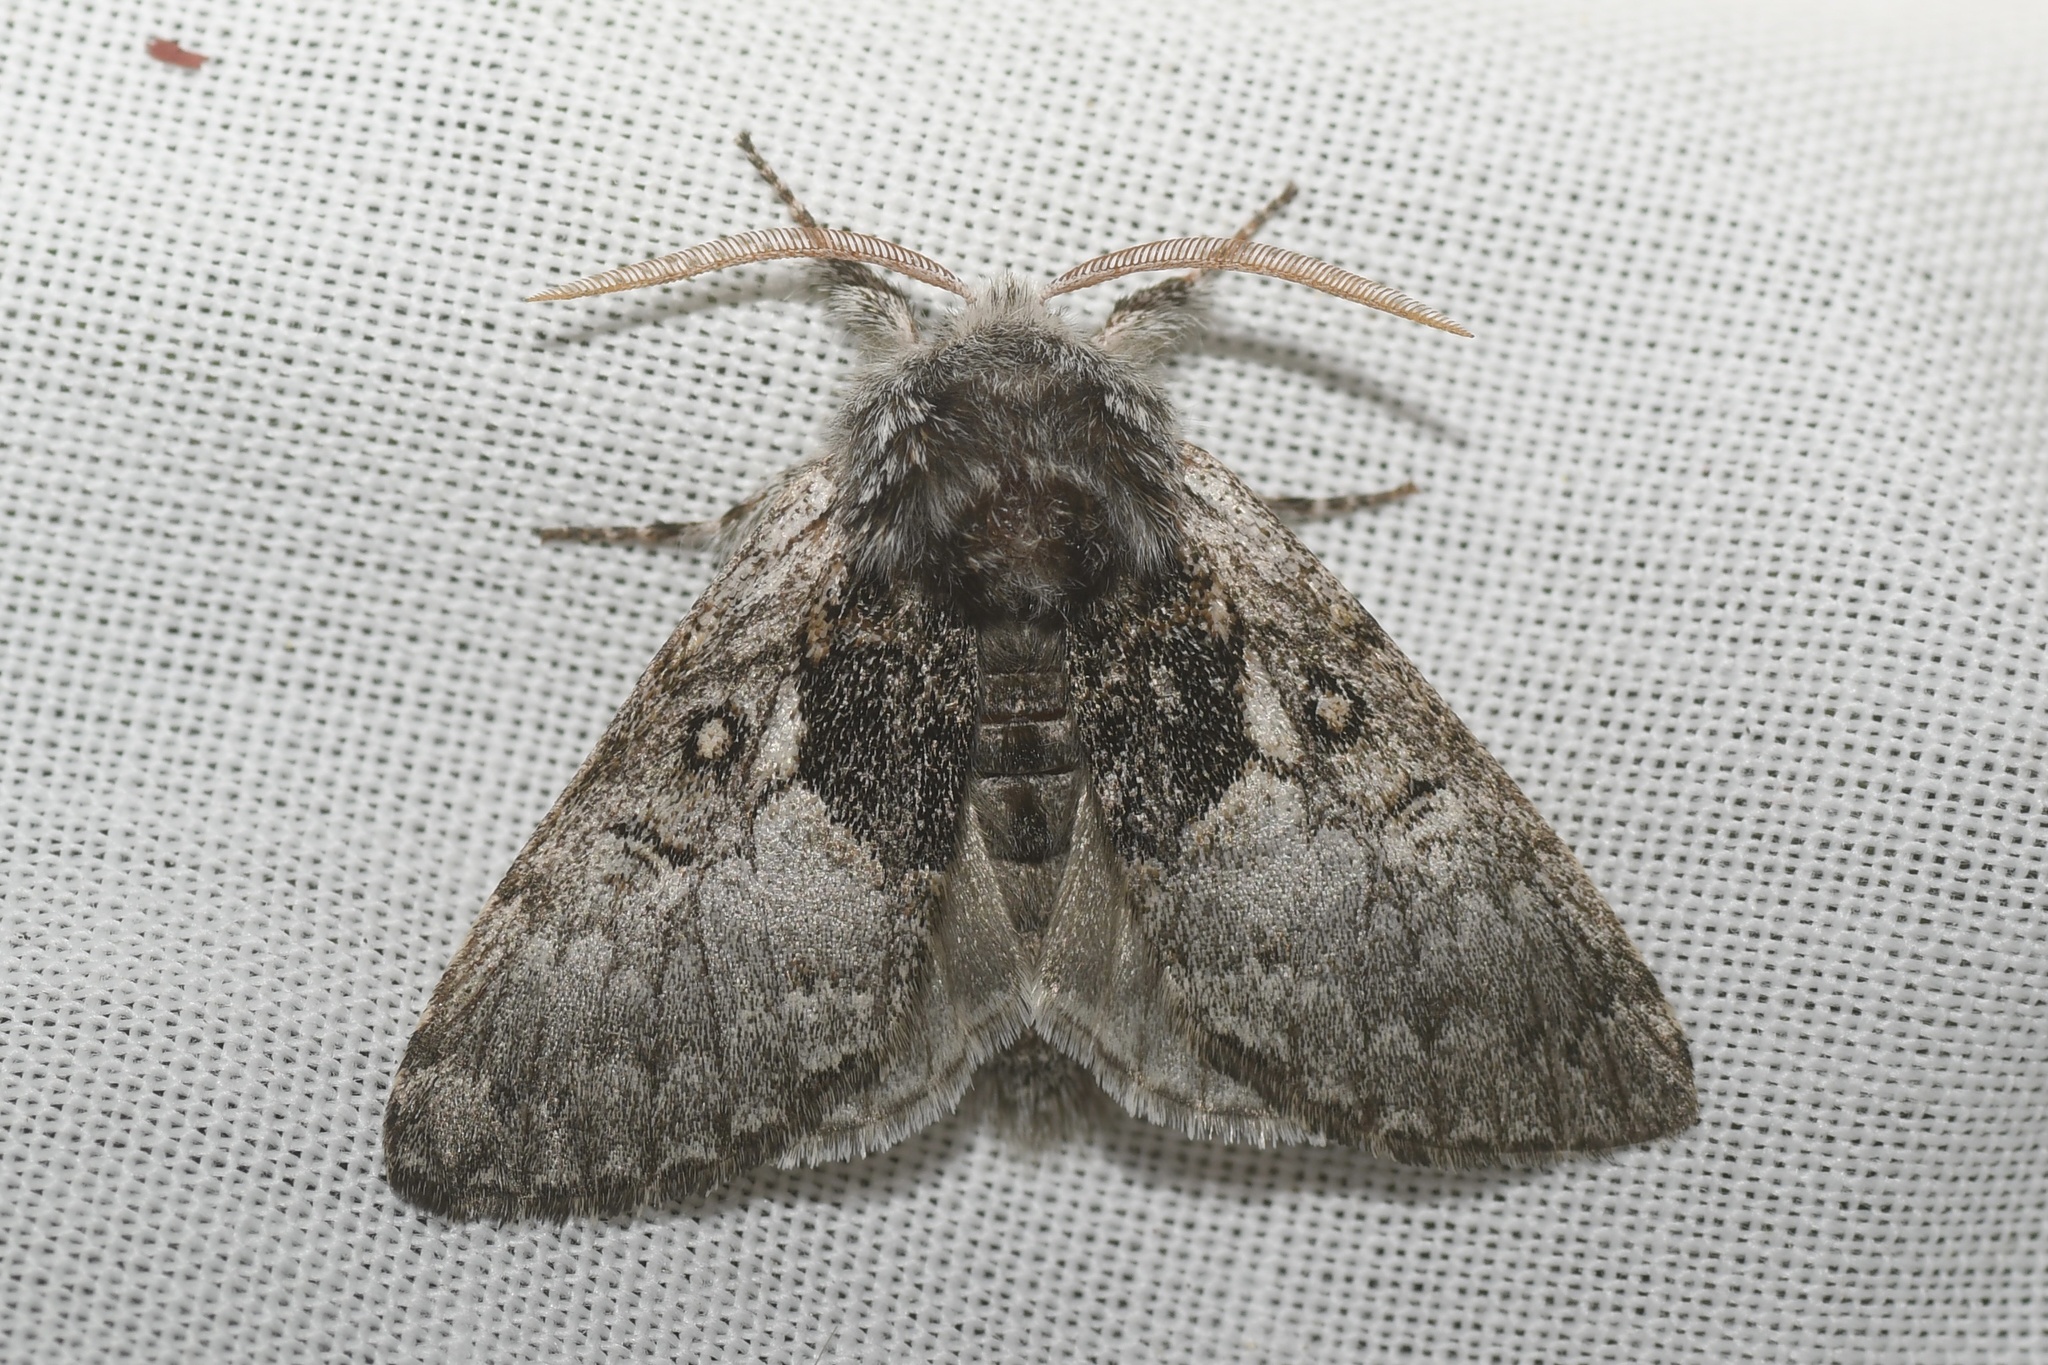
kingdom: Animalia
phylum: Arthropoda
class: Insecta
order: Lepidoptera
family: Noctuidae
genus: Colocasia
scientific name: Colocasia flavicornis
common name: Saddled yellowhorn
